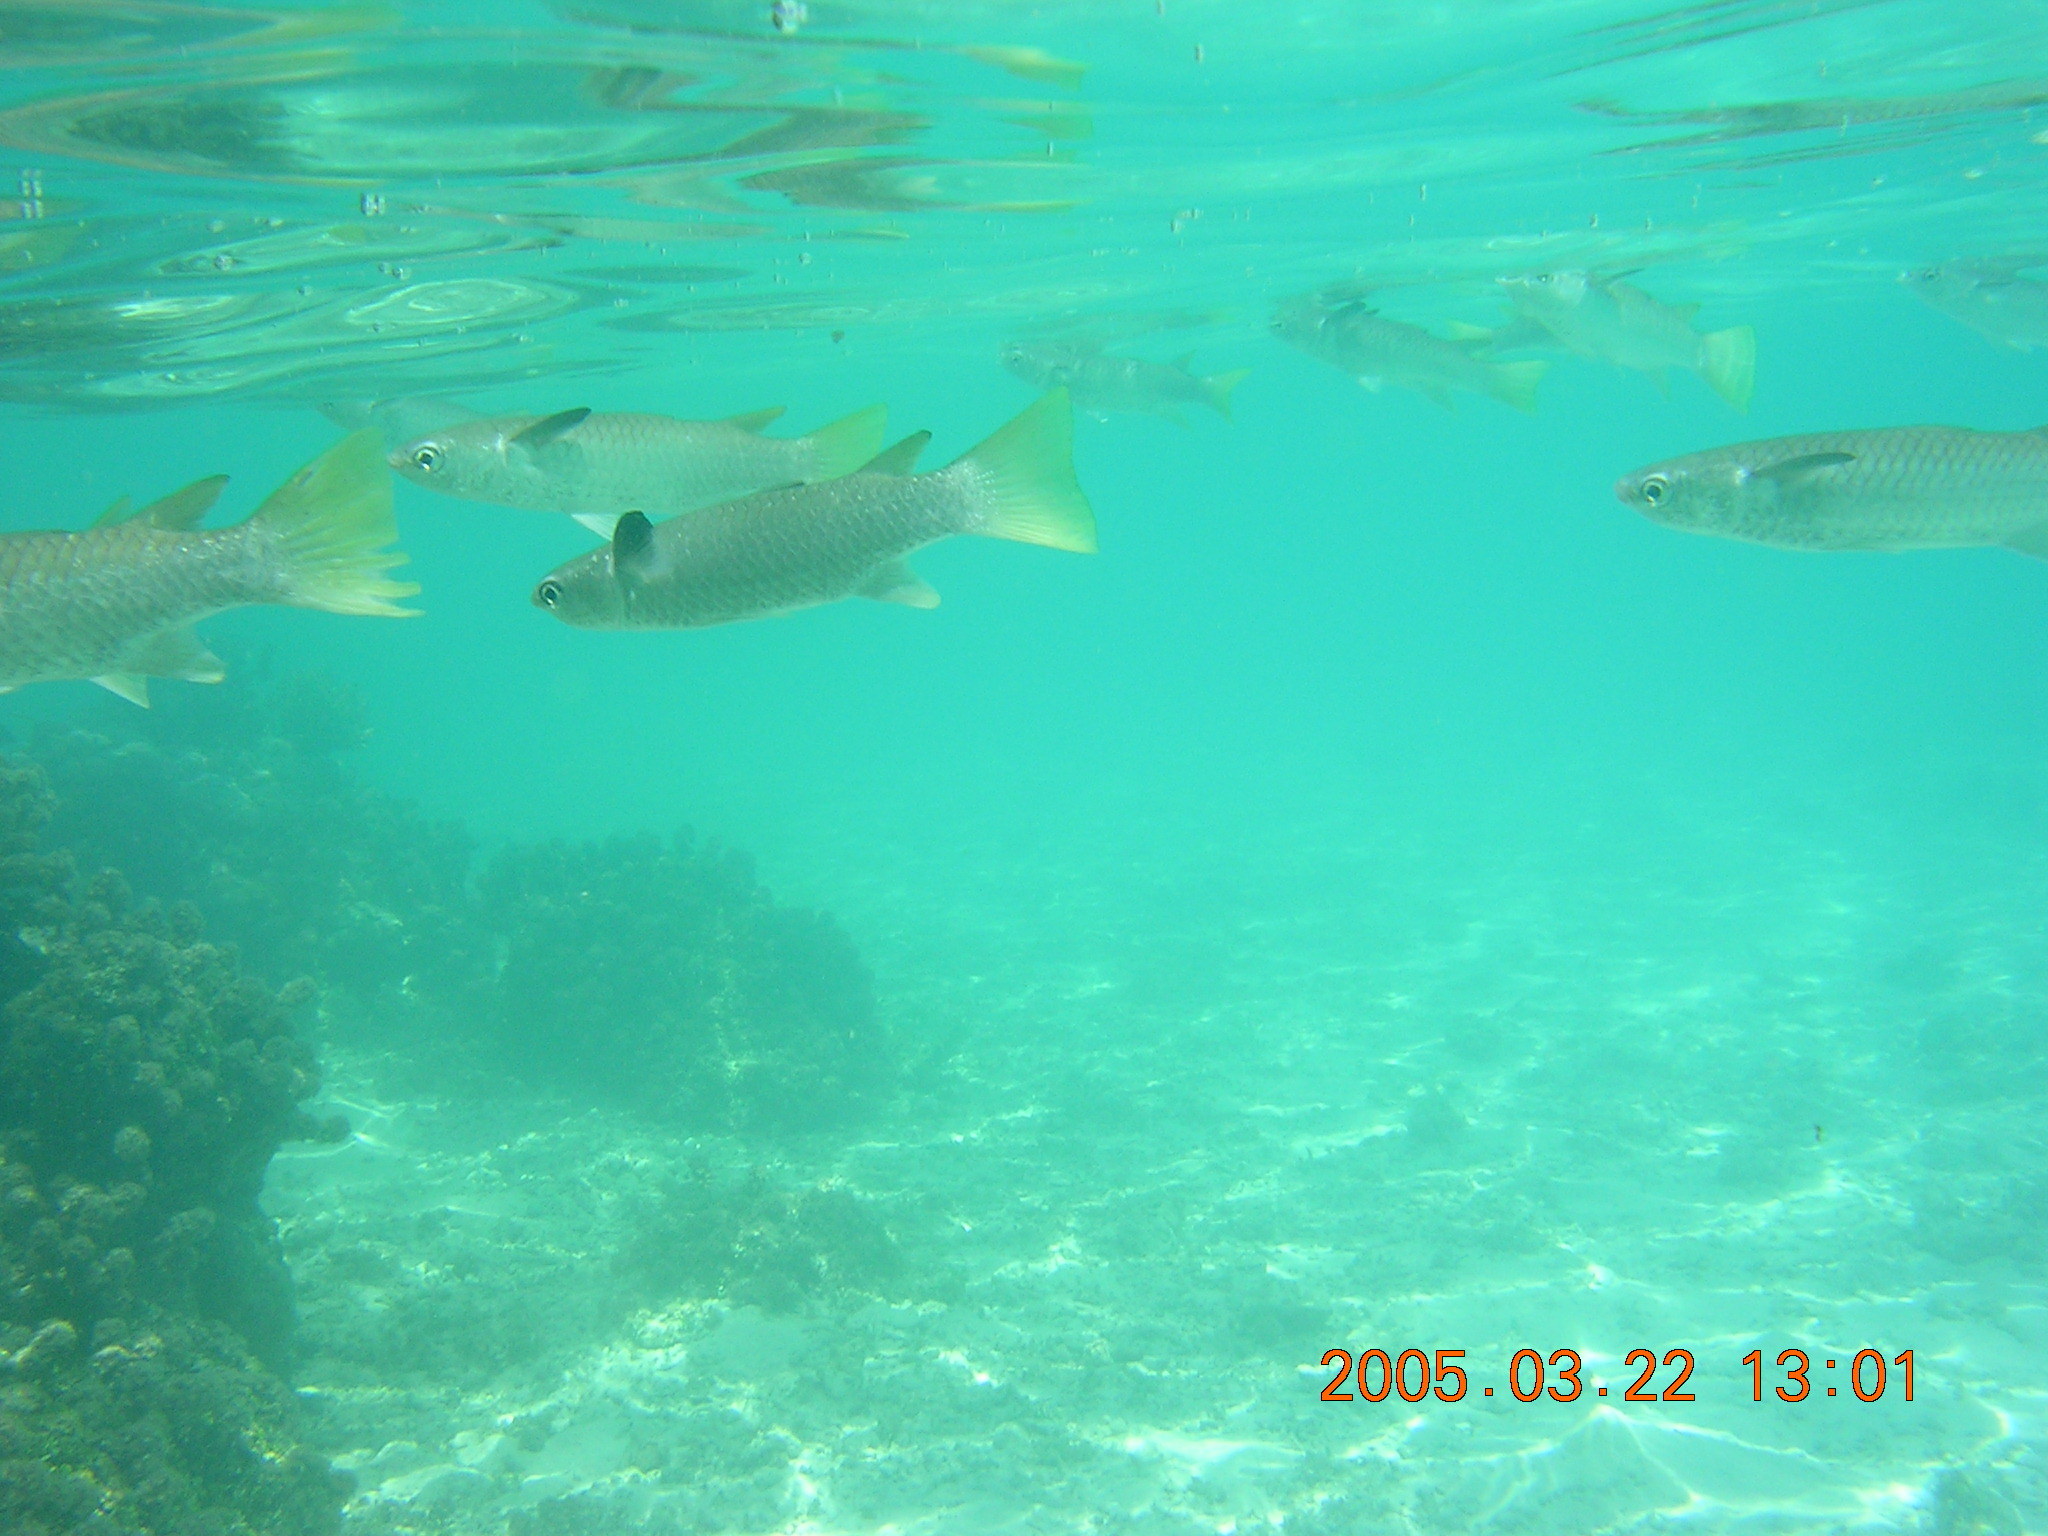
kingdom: Animalia
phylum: Chordata
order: Mugiliformes
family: Mugilidae
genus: Ellochelon
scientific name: Ellochelon vaigiensis
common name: Squaretail mullet
